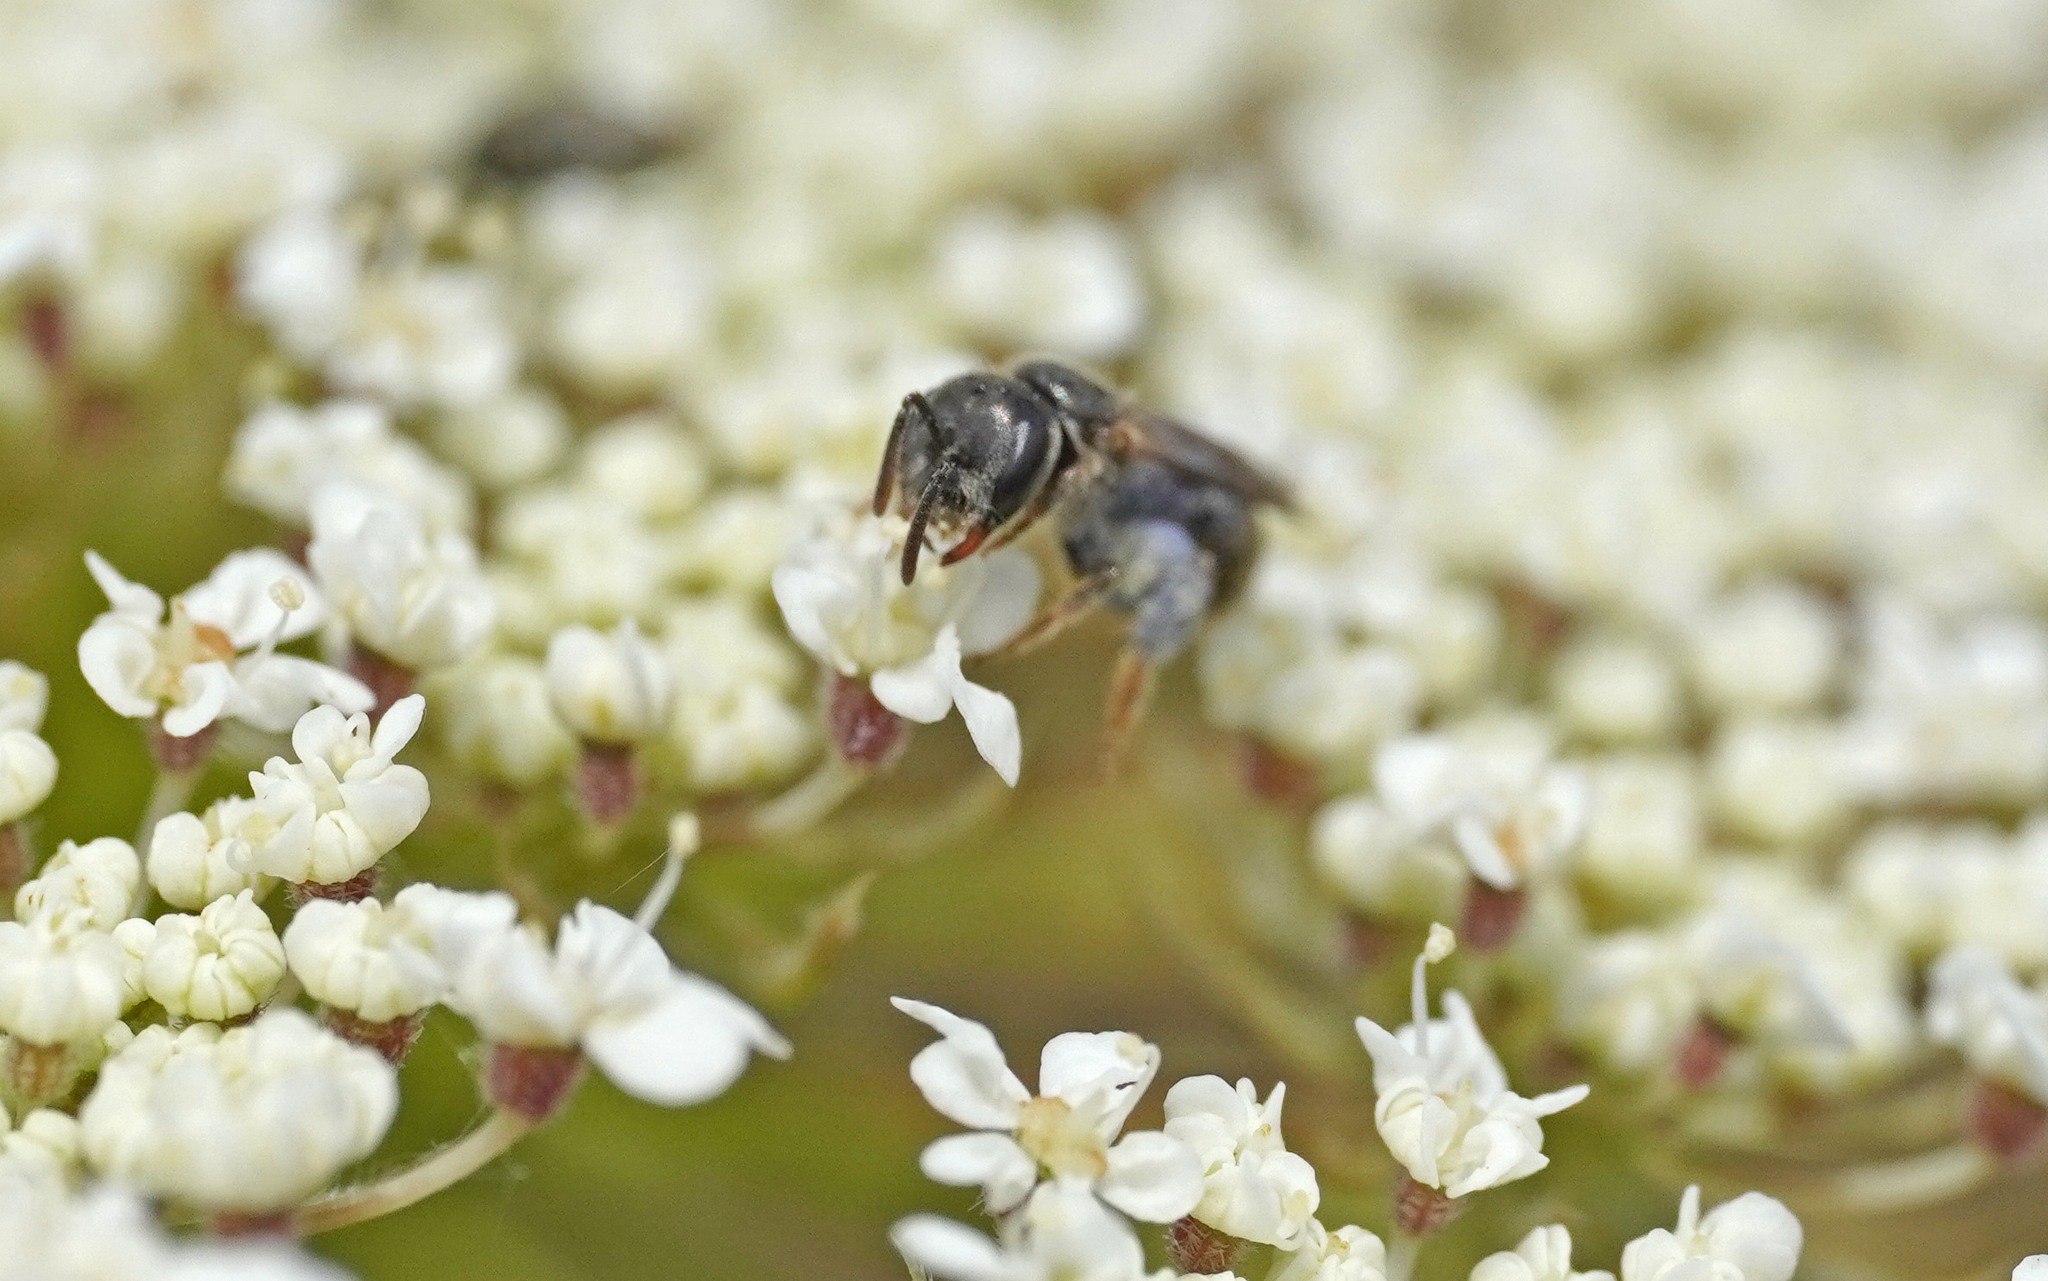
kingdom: Animalia
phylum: Arthropoda
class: Insecta
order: Hymenoptera
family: Halictidae
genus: Lasioglossum
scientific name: Lasioglossum politum
